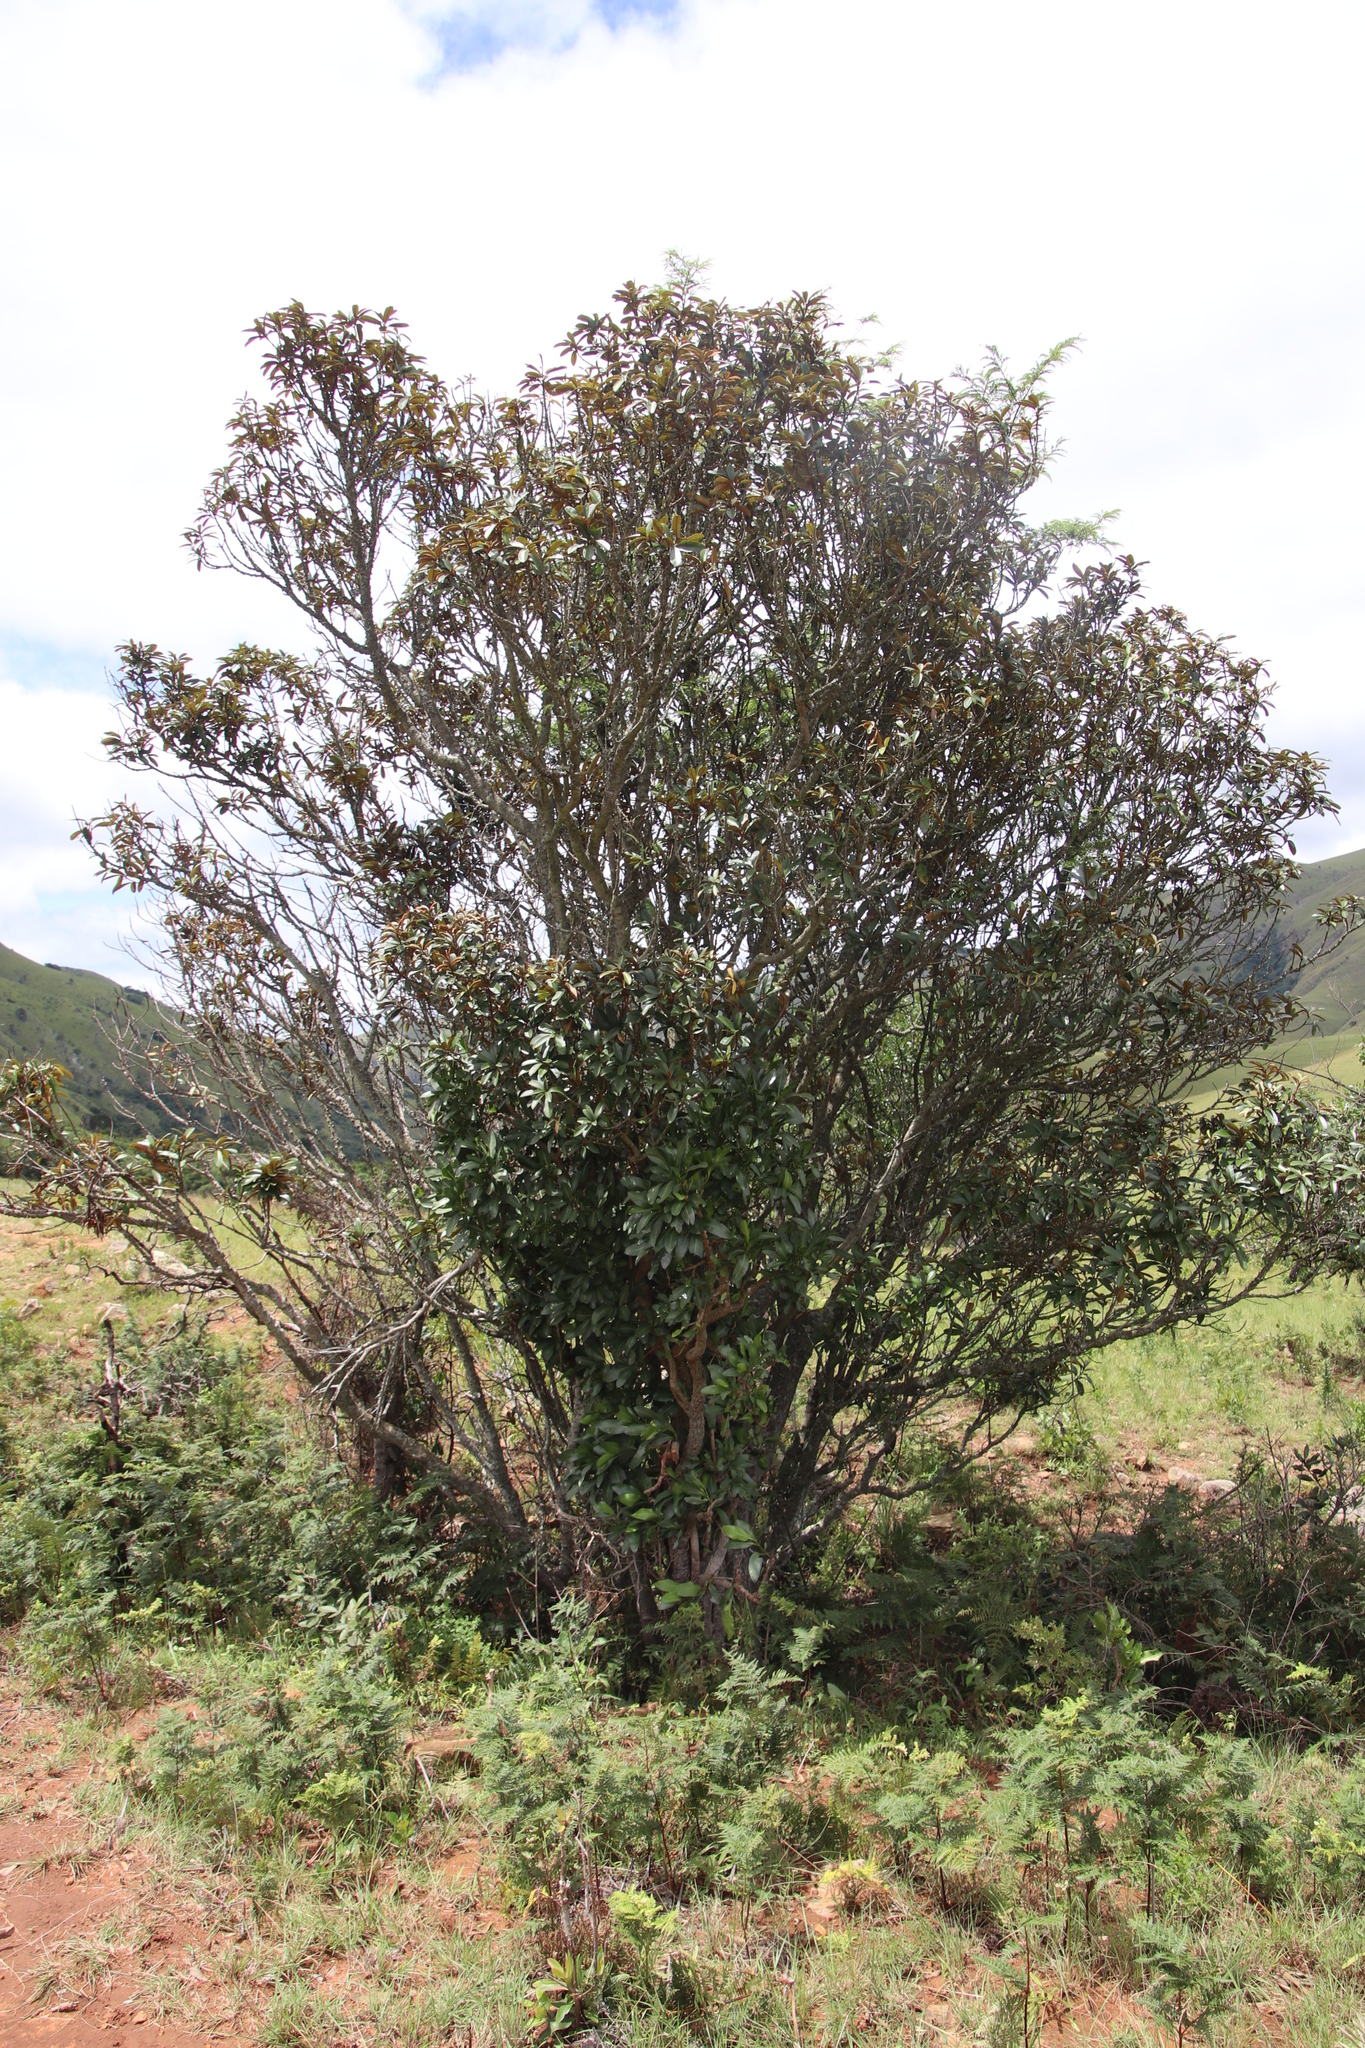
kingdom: Plantae
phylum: Tracheophyta
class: Magnoliopsida
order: Ericales
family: Sapotaceae
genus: Englerophytum
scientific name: Englerophytum magalismontanum
